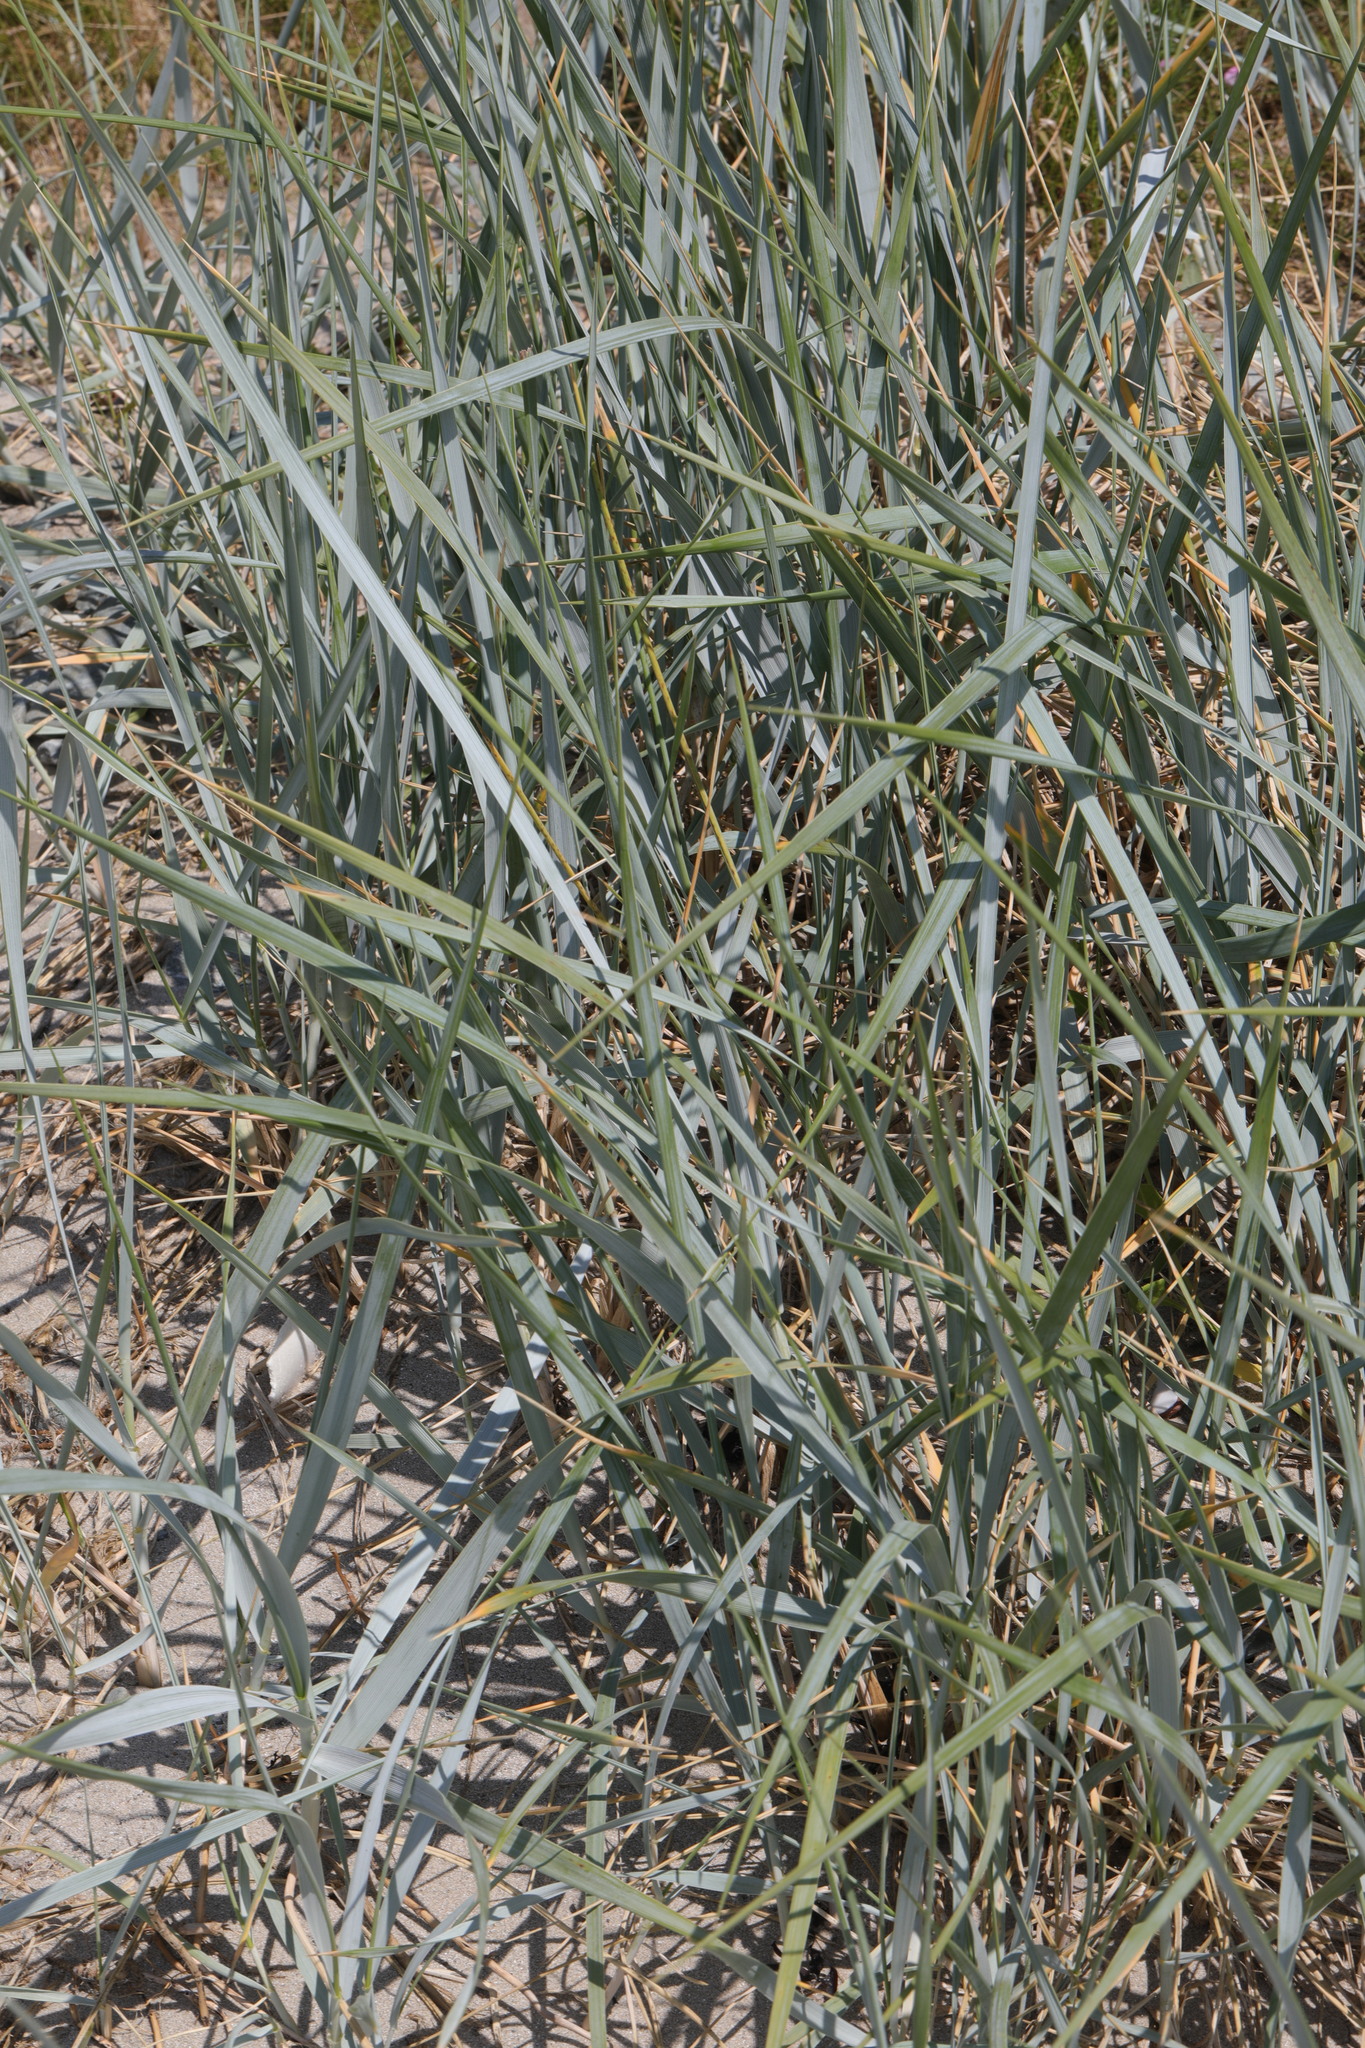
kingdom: Plantae
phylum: Tracheophyta
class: Liliopsida
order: Poales
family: Poaceae
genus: Leymus
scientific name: Leymus arenarius
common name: Lyme-grass
